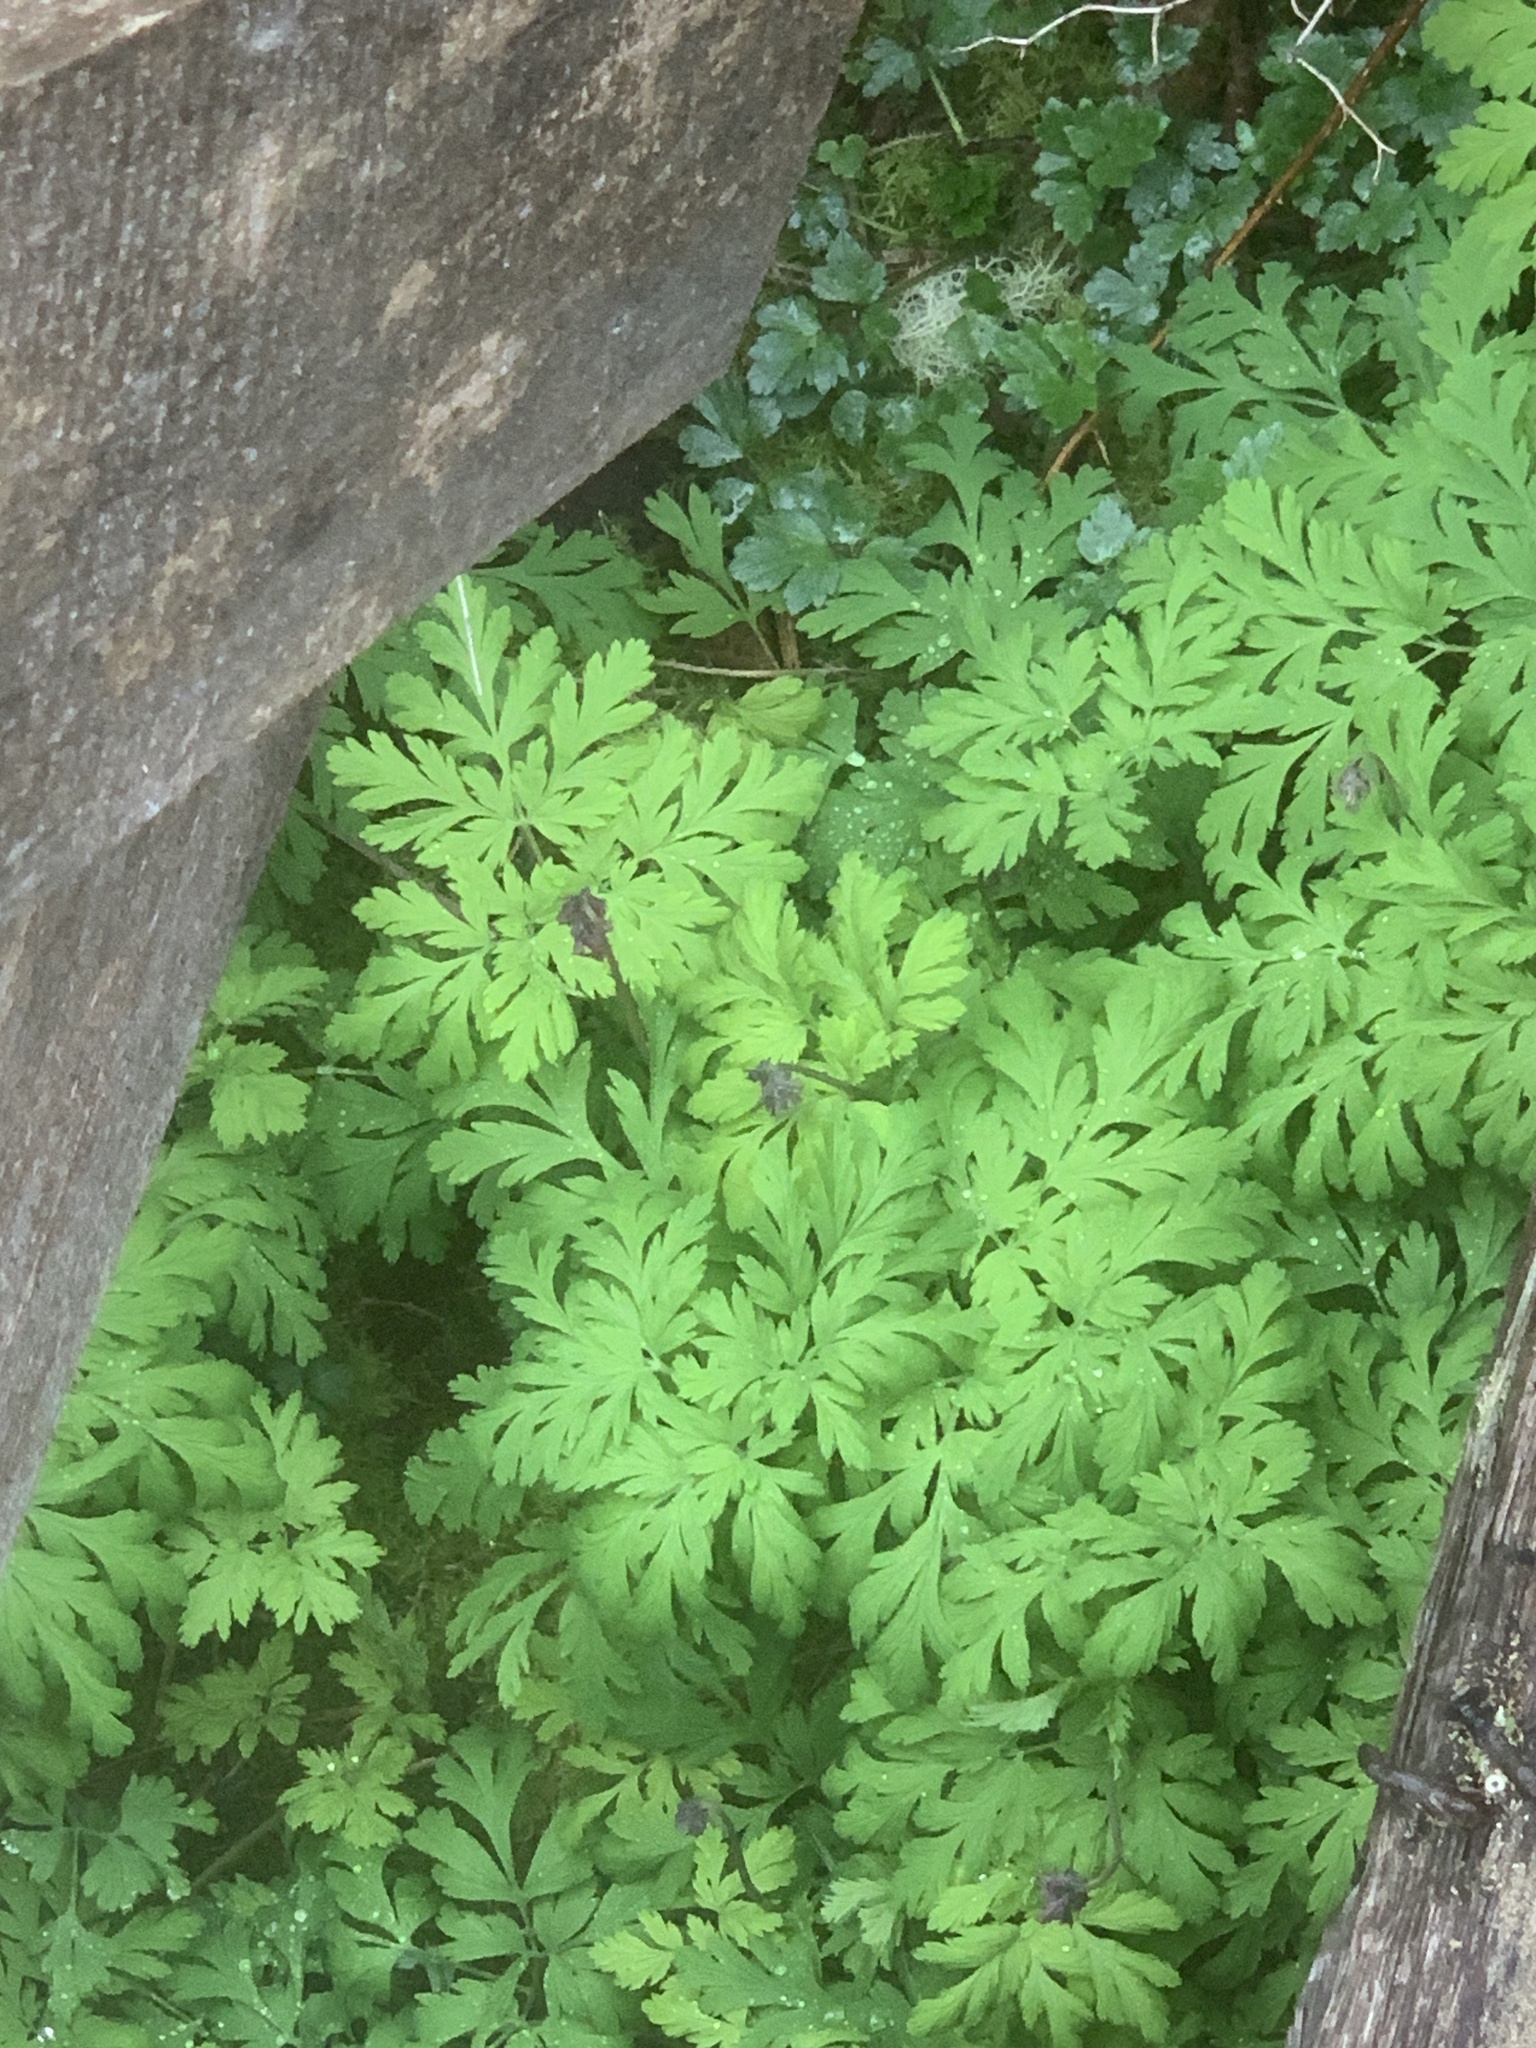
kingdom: Plantae
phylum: Tracheophyta
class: Magnoliopsida
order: Ranunculales
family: Papaveraceae
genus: Dicentra
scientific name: Dicentra formosa
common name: Bleeding-heart
